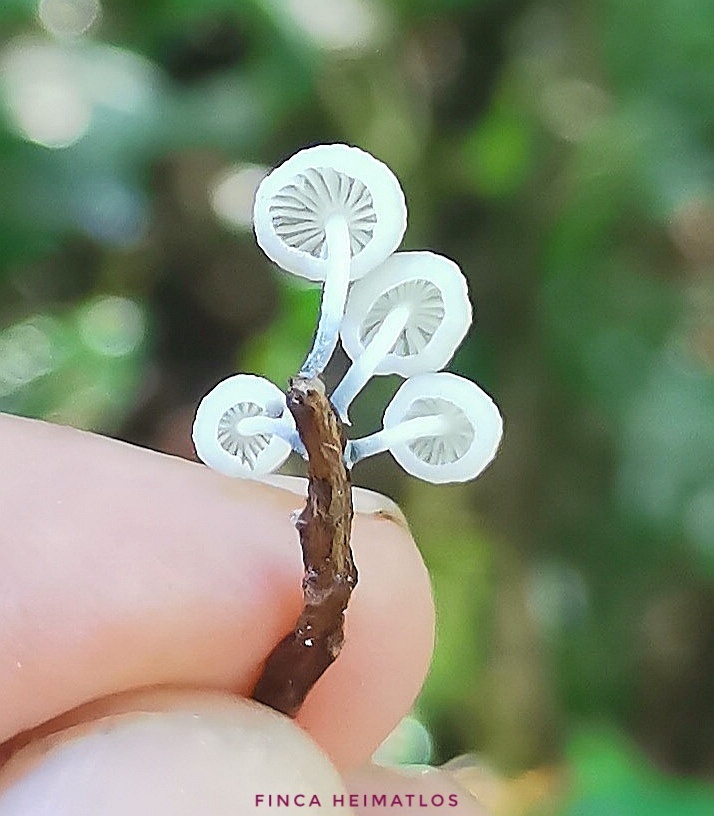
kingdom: Fungi
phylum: Basidiomycota
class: Agaricomycetes
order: Agaricales
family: Marasmiaceae
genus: Tetrapyrgos
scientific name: Tetrapyrgos longicystidiata
